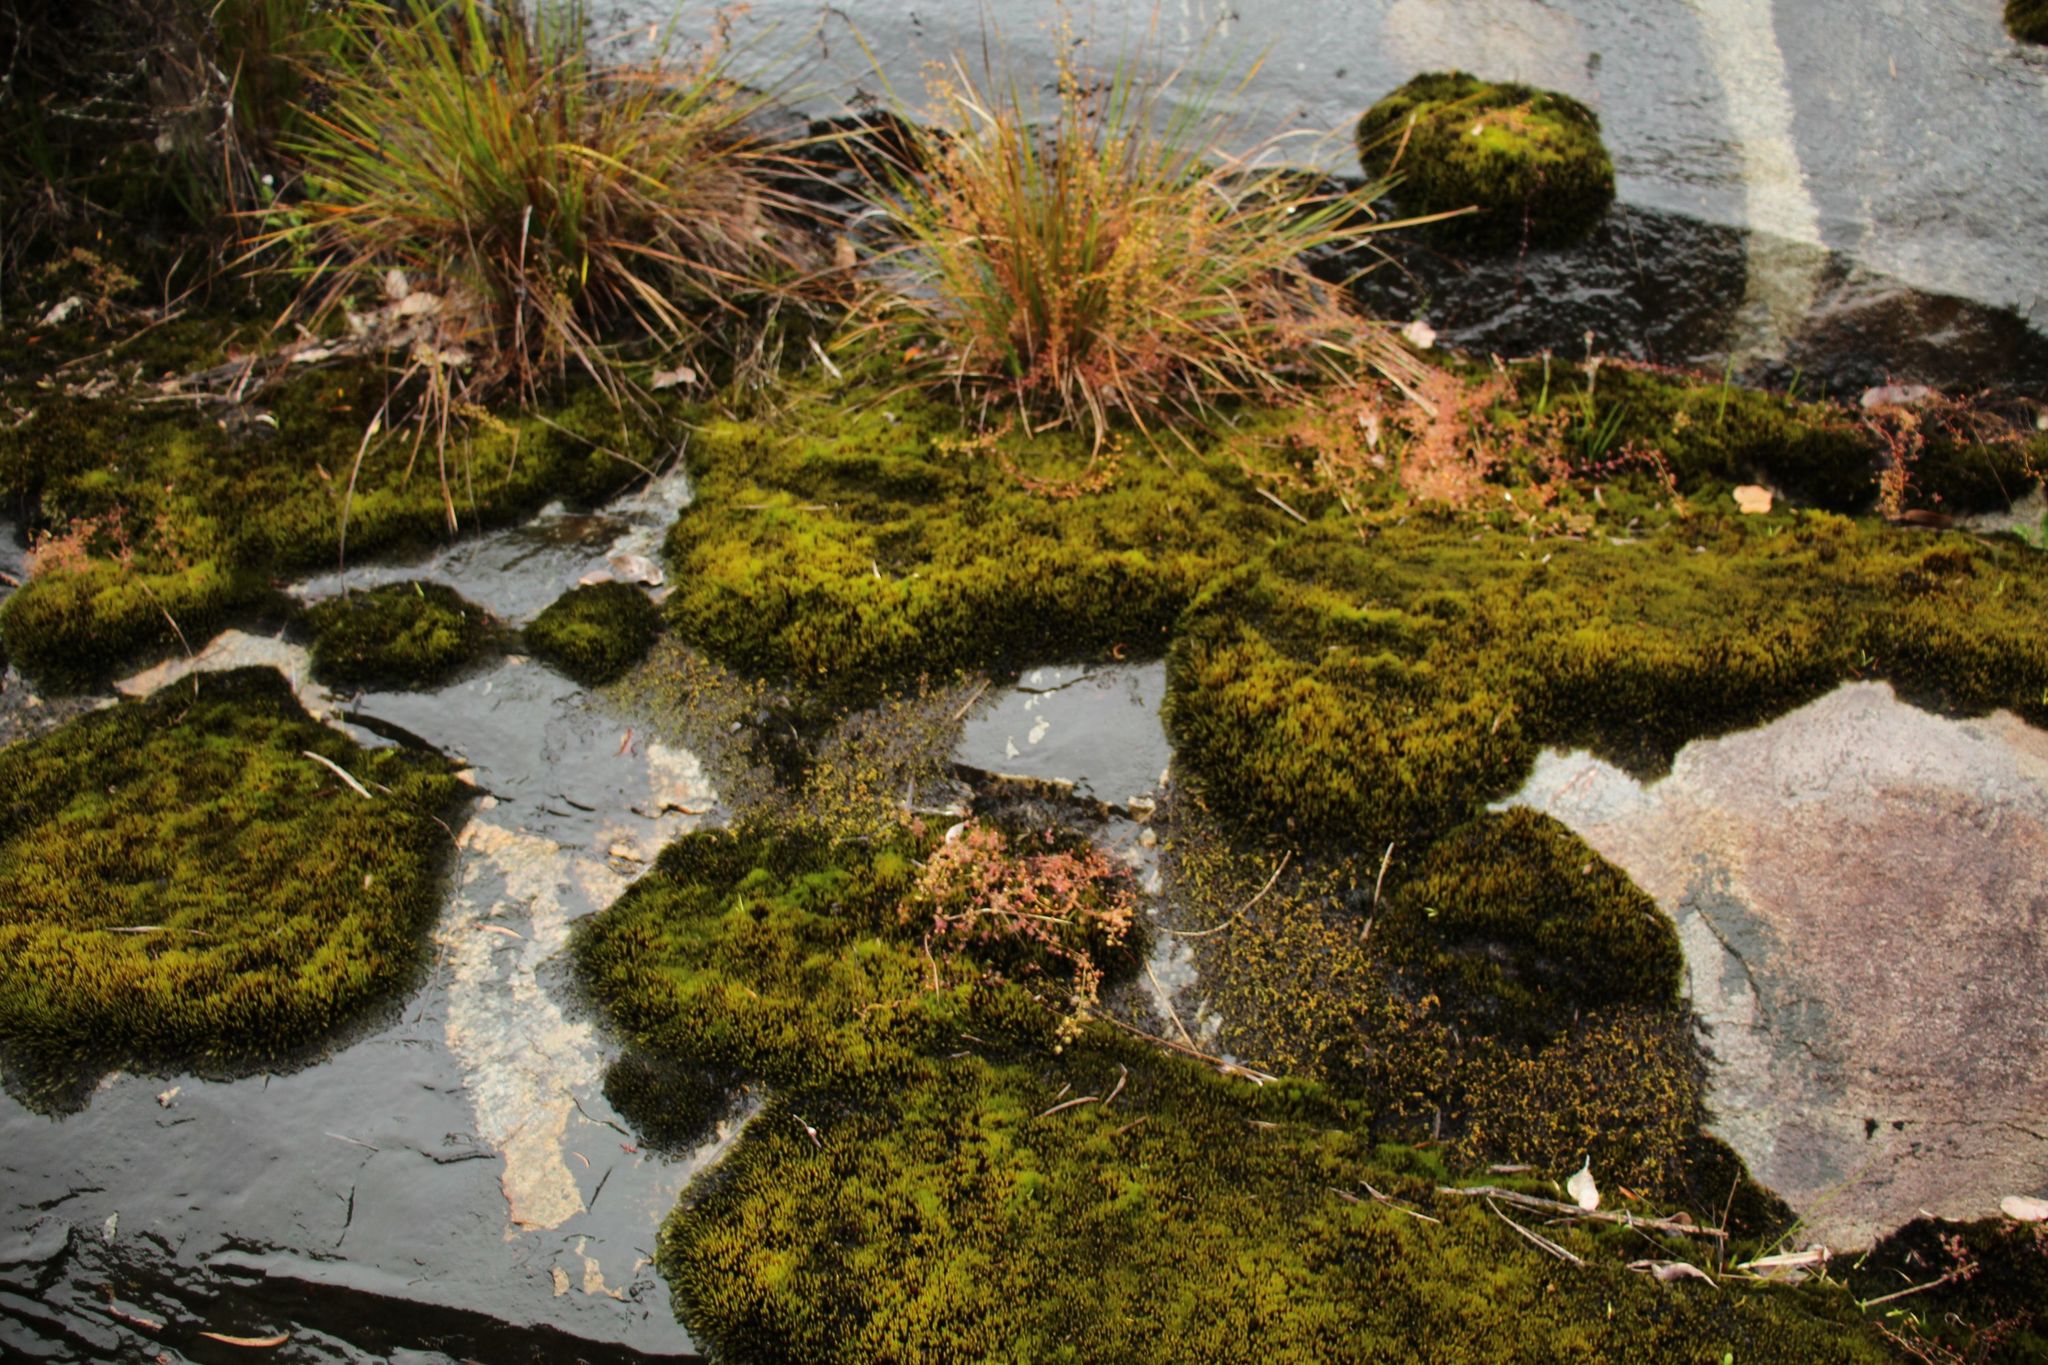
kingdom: Plantae
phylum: Tracheophyta
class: Magnoliopsida
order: Caryophyllales
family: Droseraceae
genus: Drosera
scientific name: Drosera macrantha
